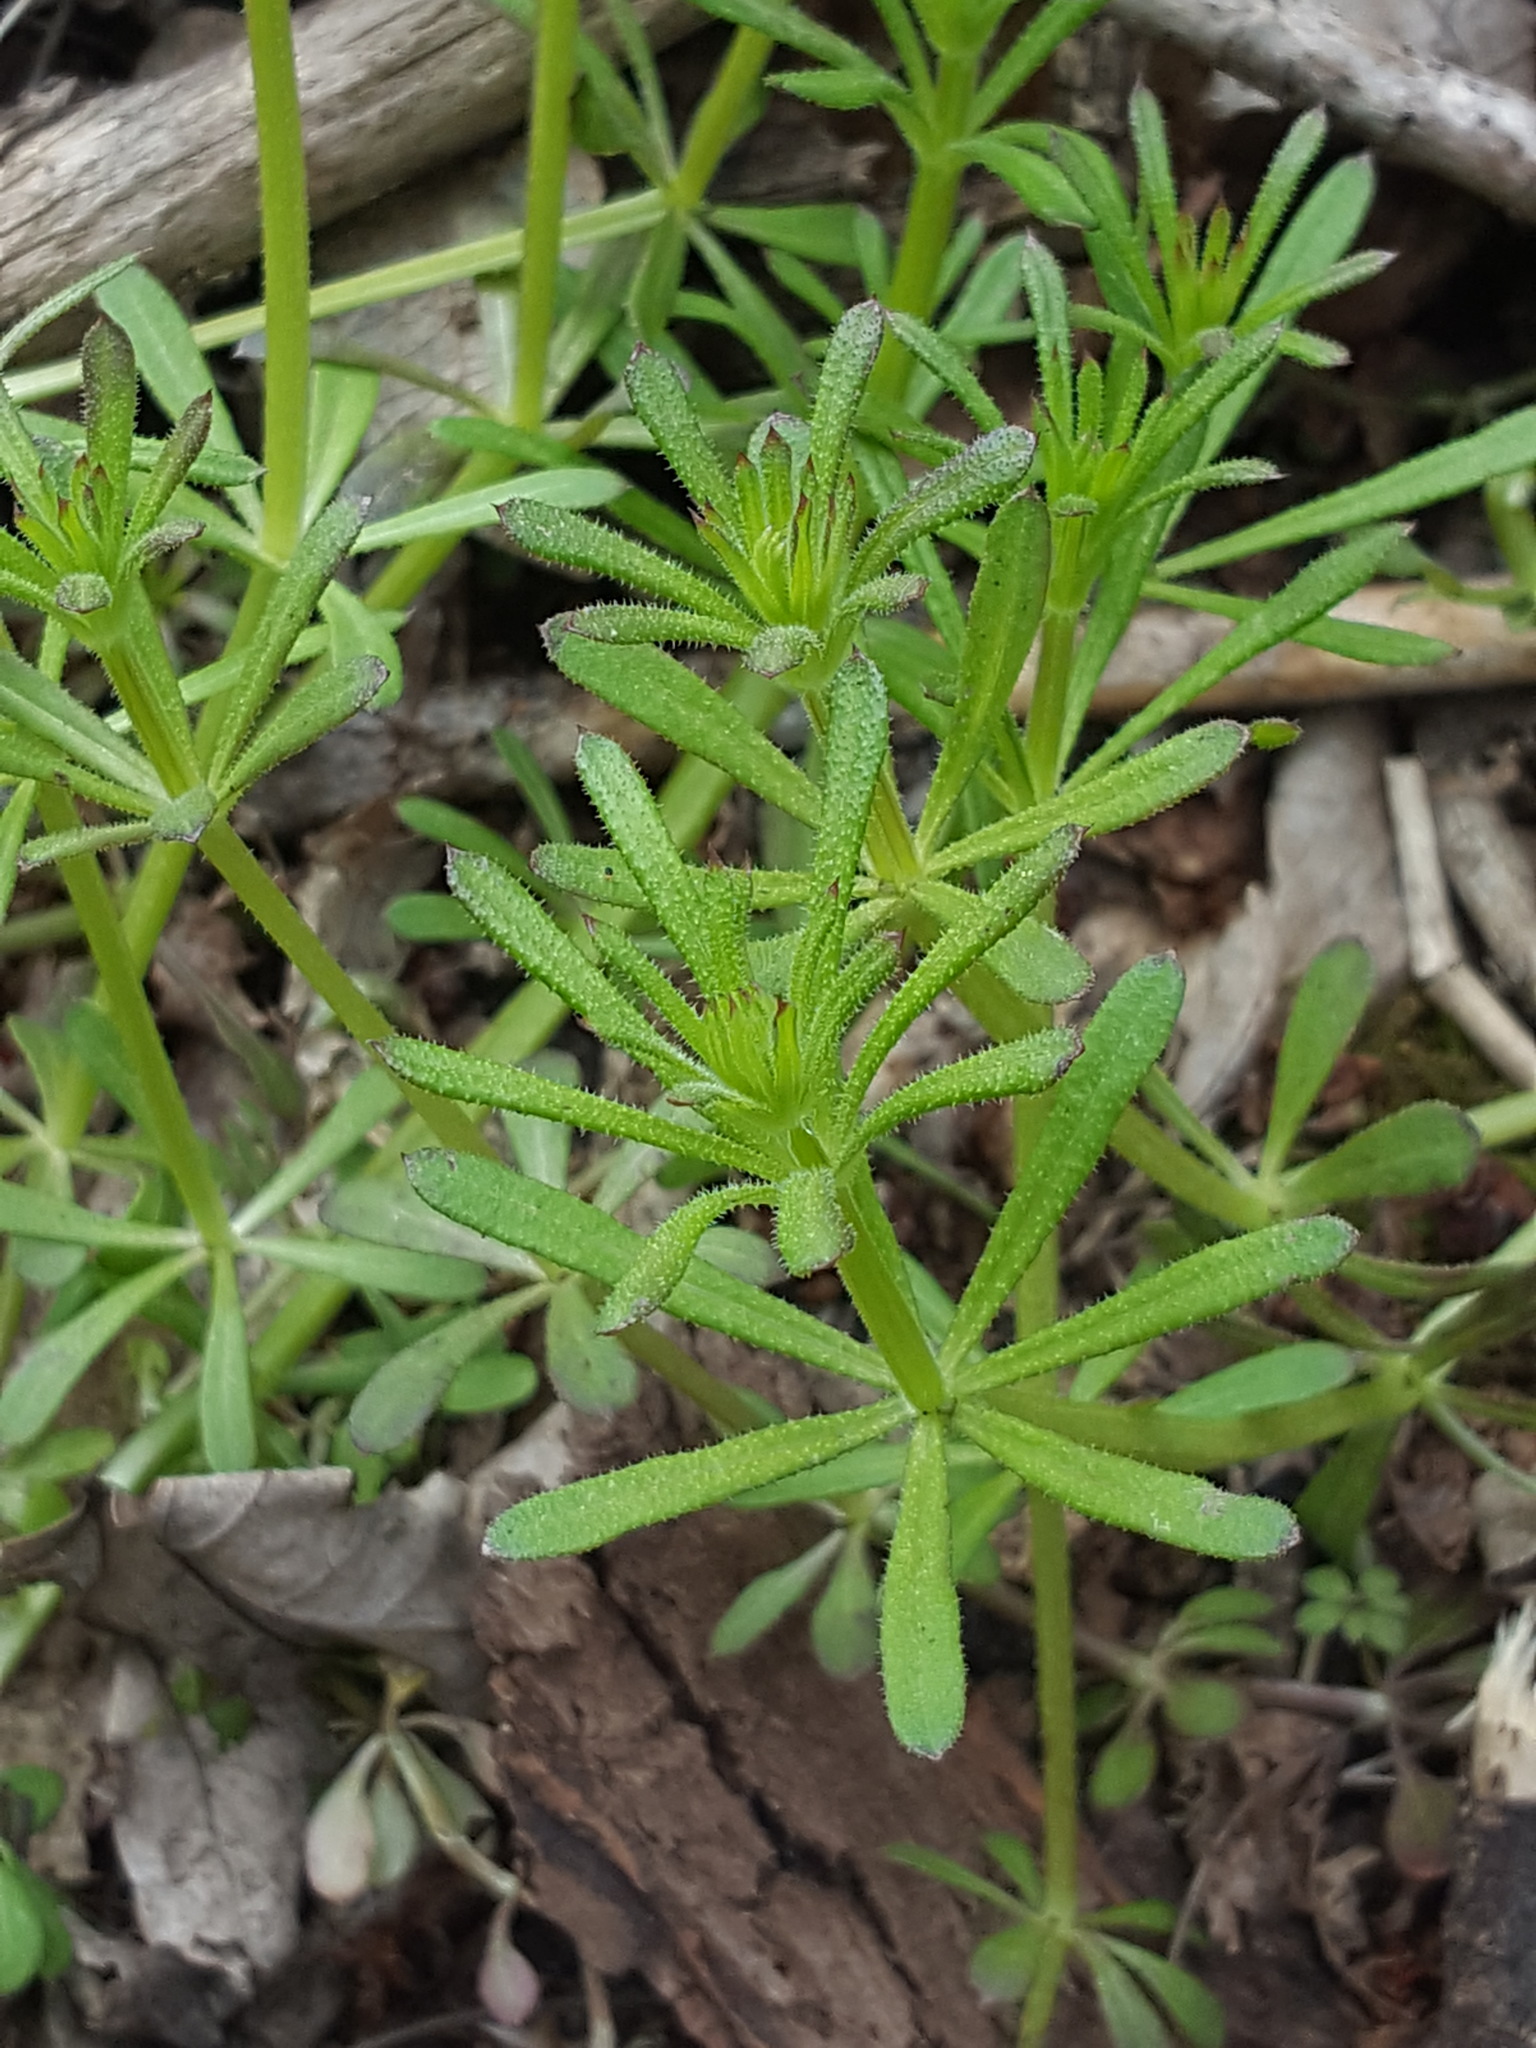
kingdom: Plantae
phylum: Tracheophyta
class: Magnoliopsida
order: Gentianales
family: Rubiaceae
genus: Galium
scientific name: Galium aparine
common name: Cleavers
